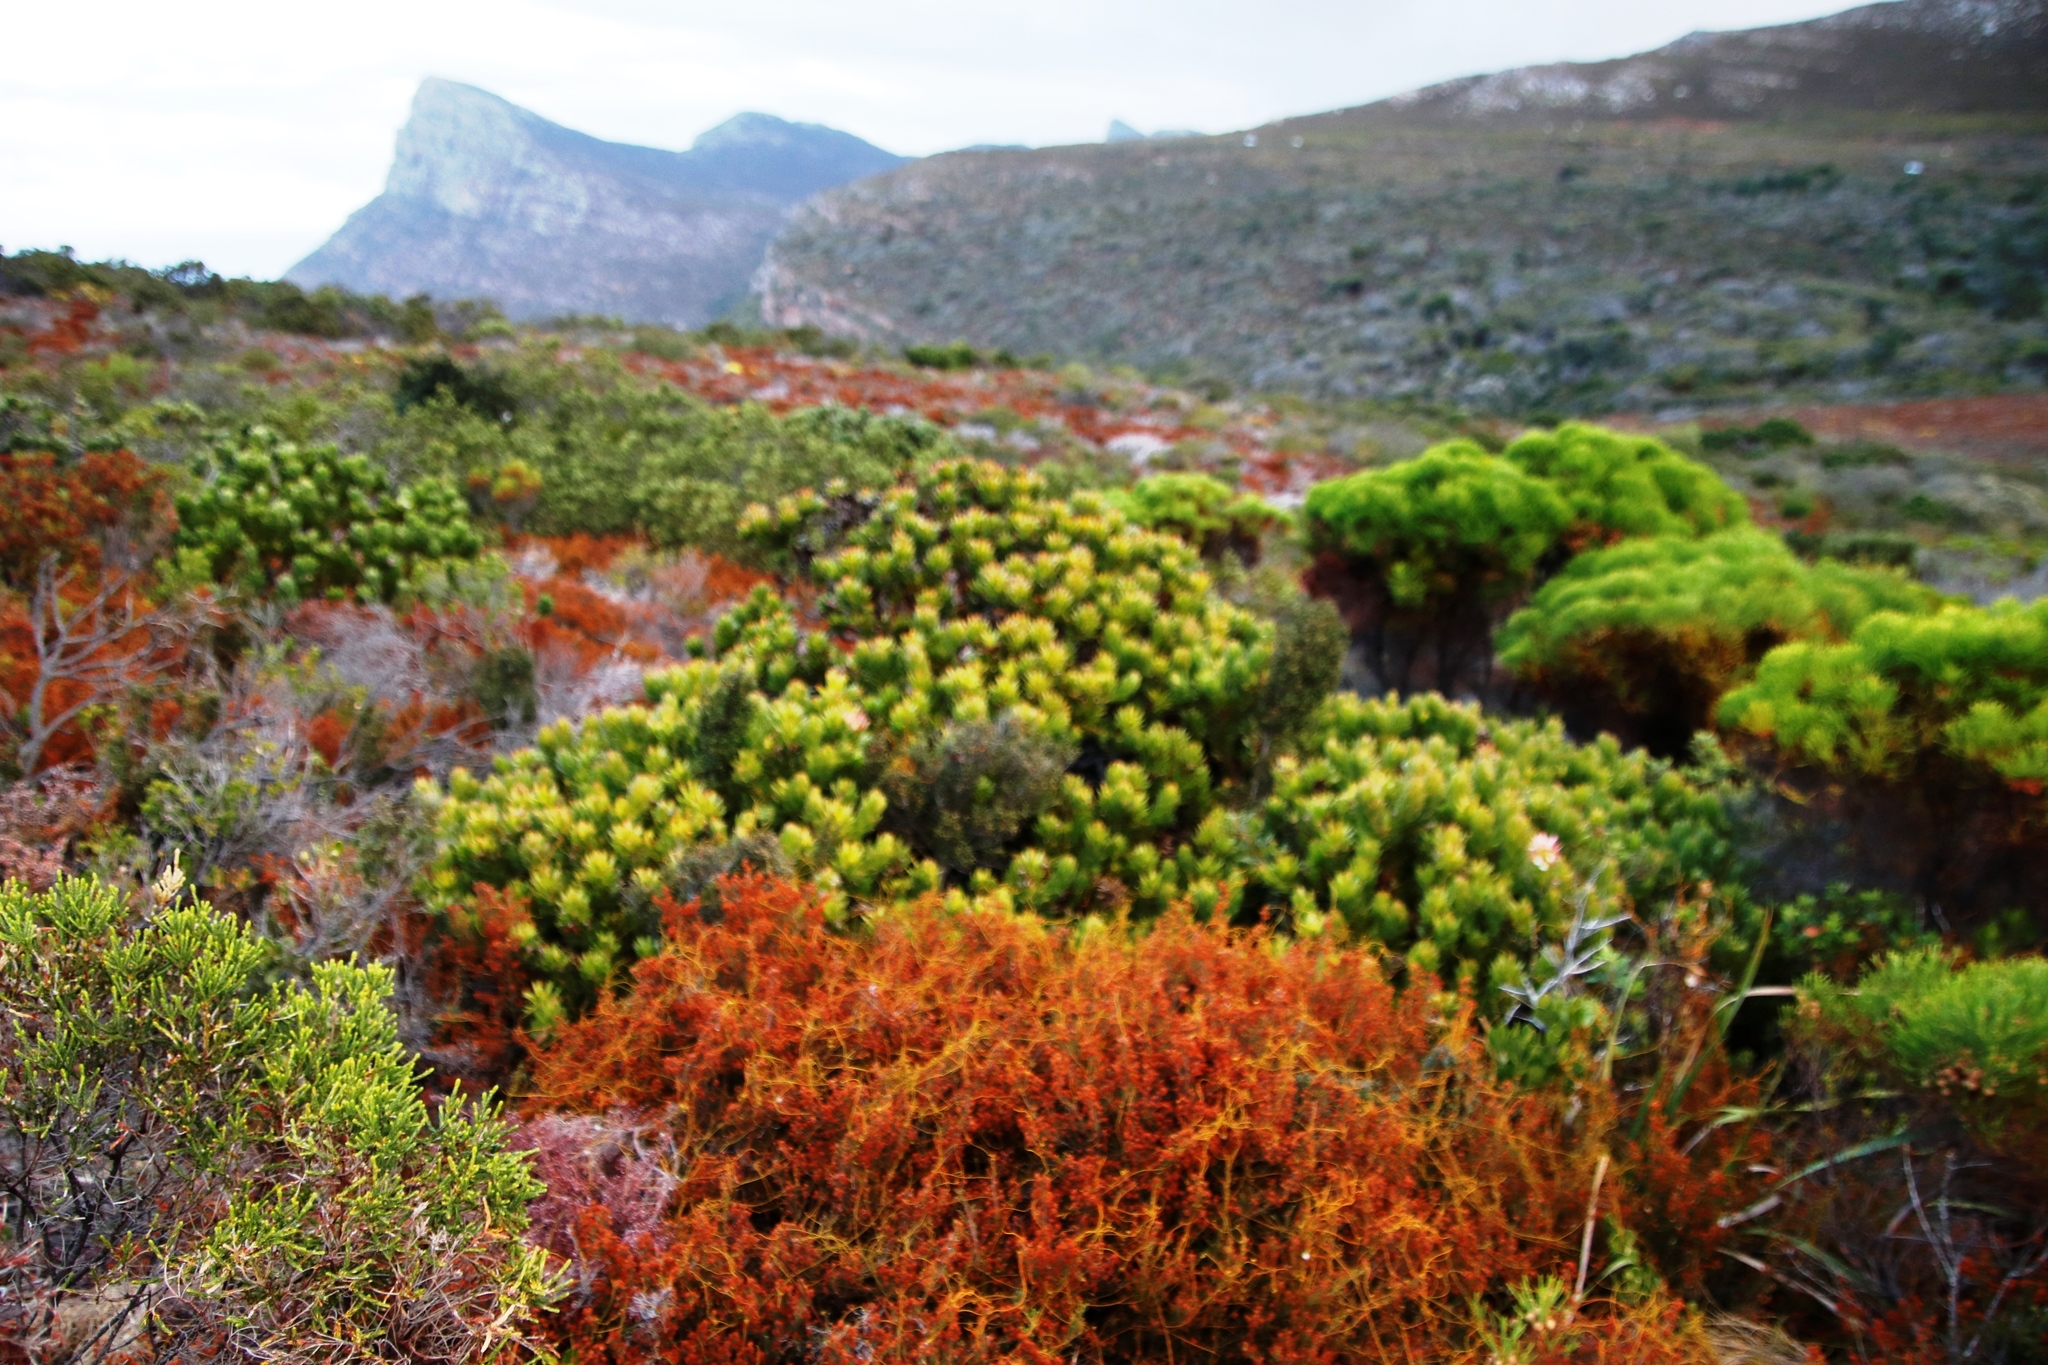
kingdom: Plantae
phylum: Tracheophyta
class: Magnoliopsida
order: Proteales
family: Proteaceae
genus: Mimetes
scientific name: Mimetes fimbriifolius
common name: Fringed bottlebrush
